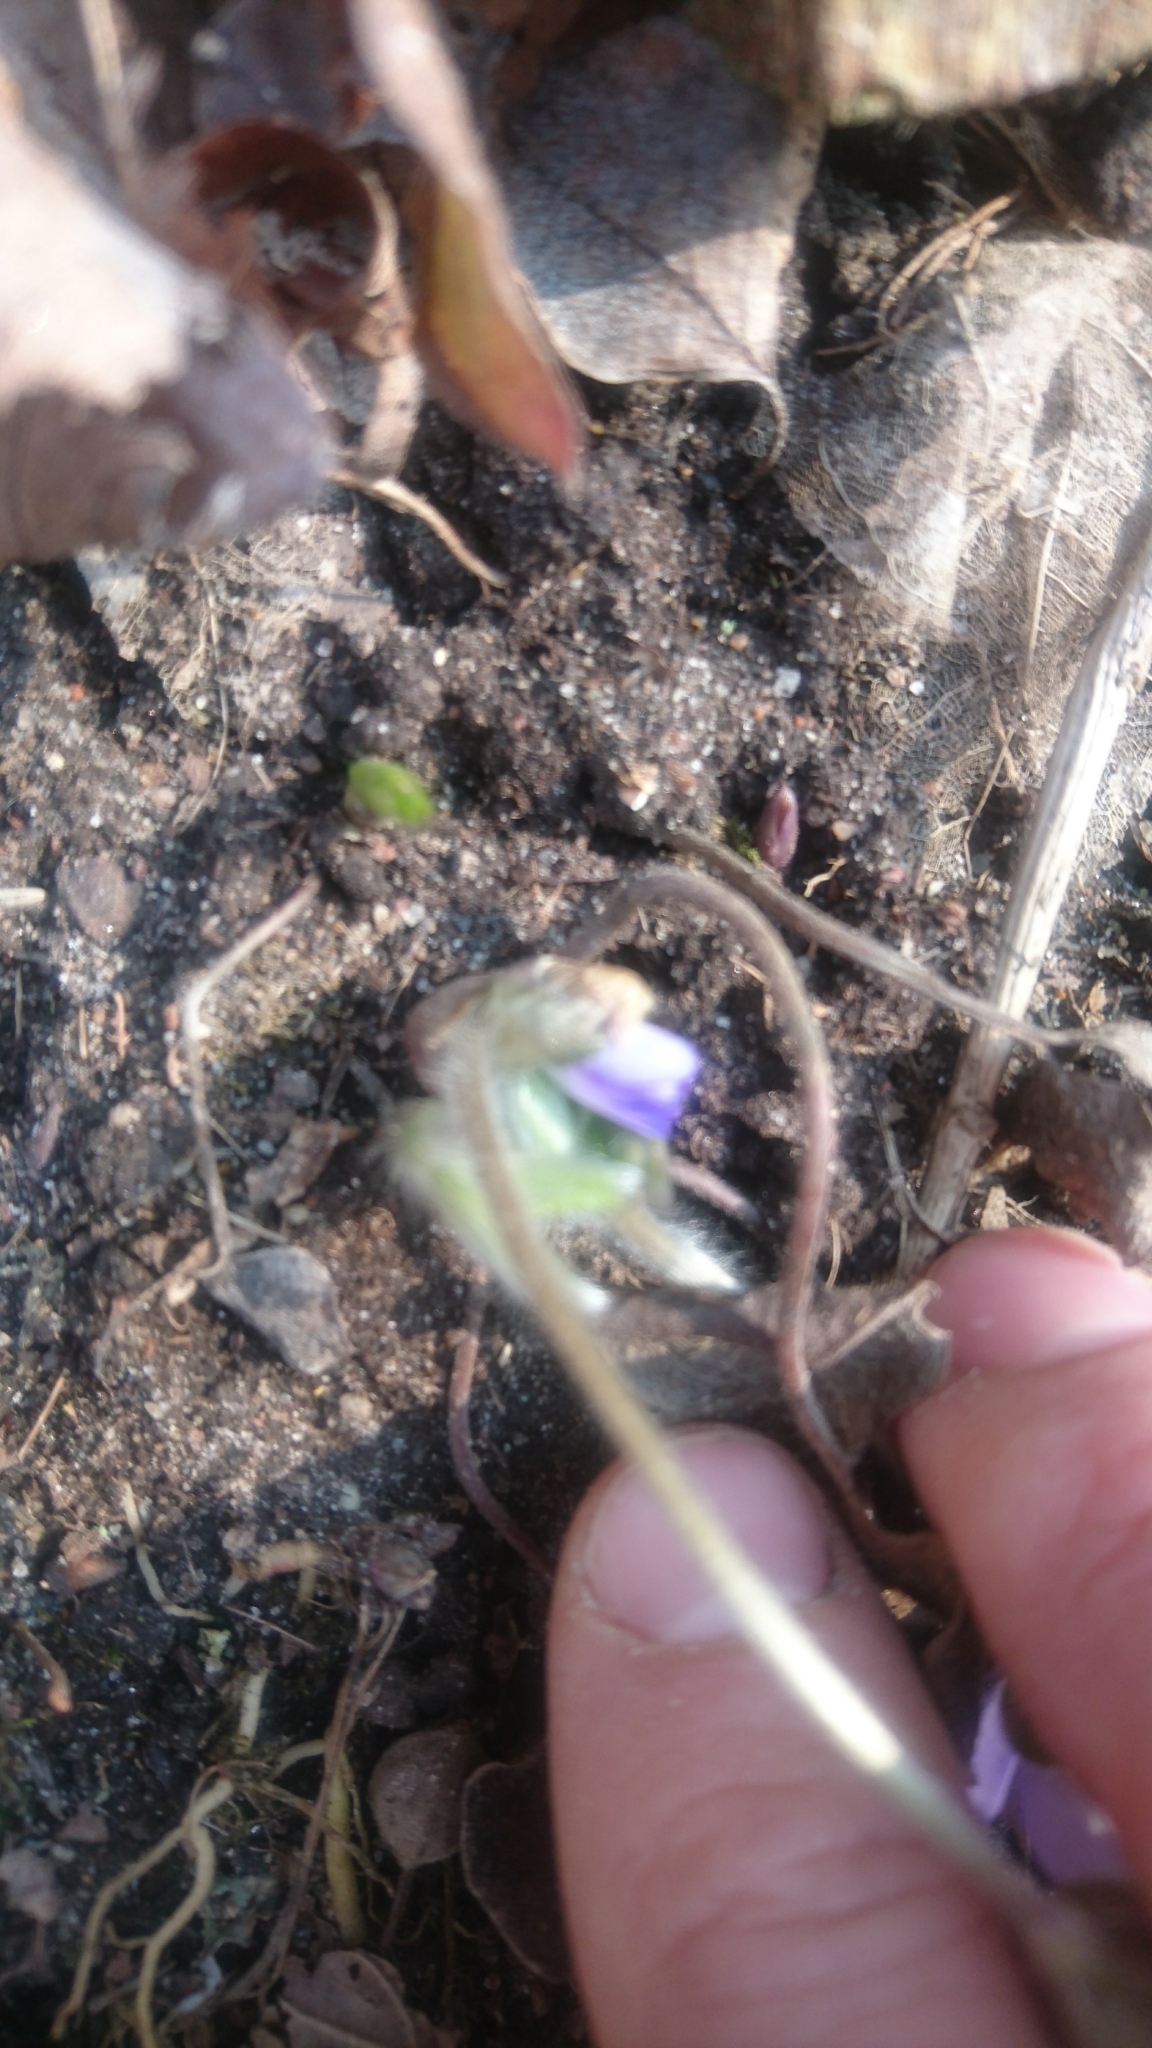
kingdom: Plantae
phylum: Tracheophyta
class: Magnoliopsida
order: Ranunculales
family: Ranunculaceae
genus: Hepatica
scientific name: Hepatica nobilis
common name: Liverleaf
